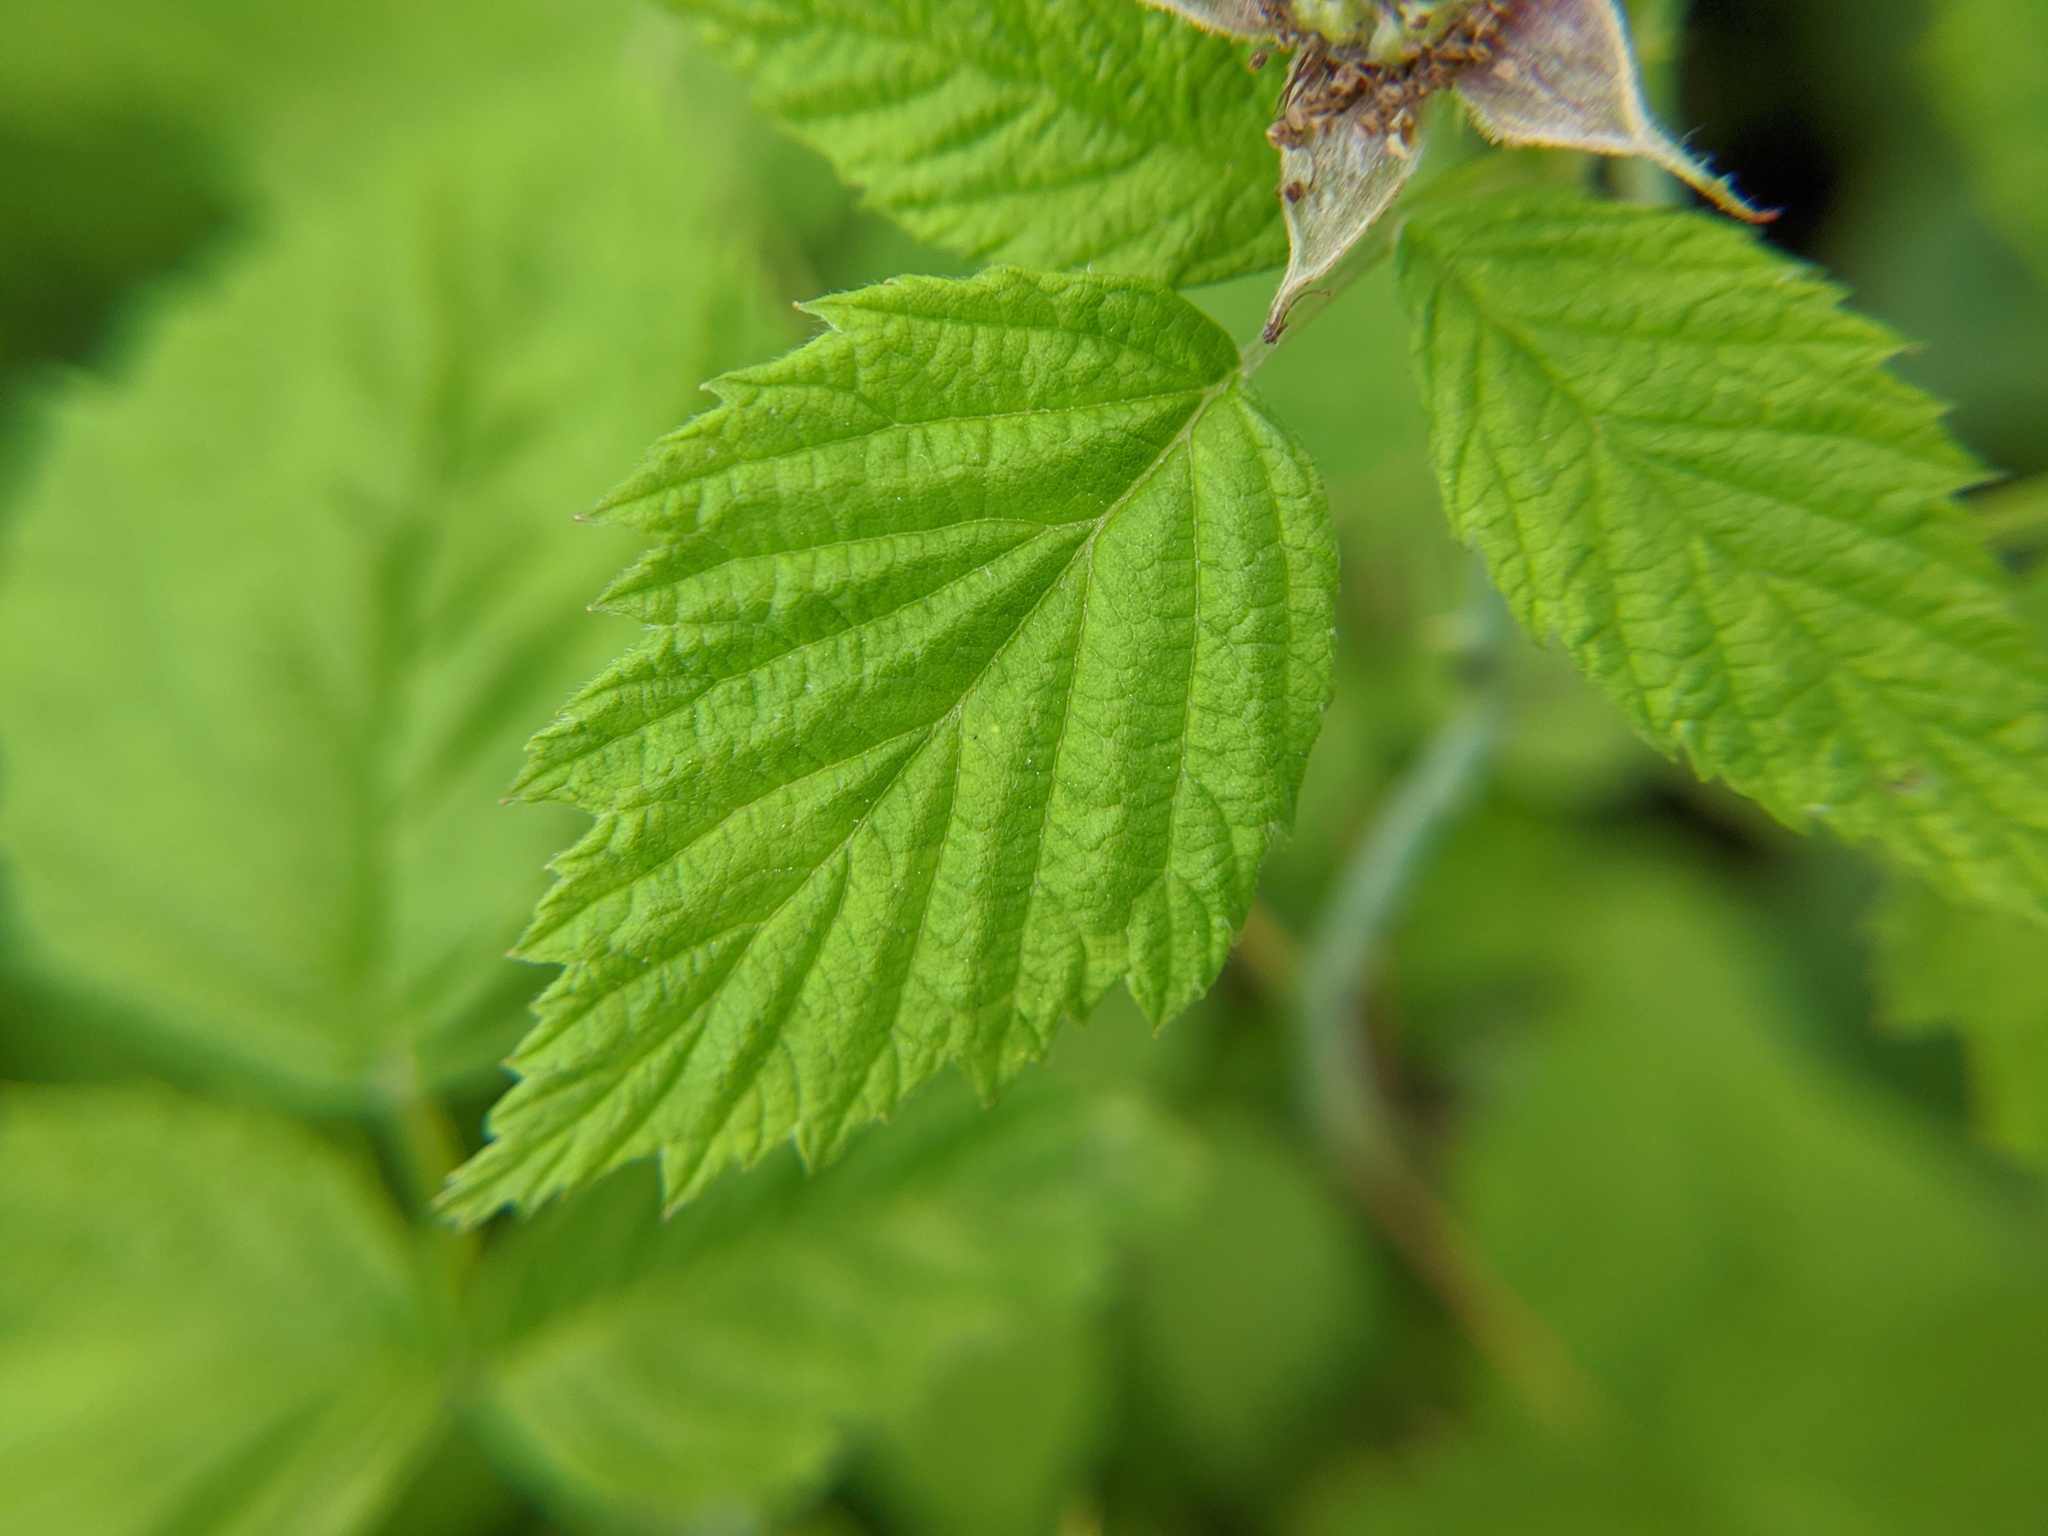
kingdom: Plantae
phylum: Tracheophyta
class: Magnoliopsida
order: Rosales
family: Rosaceae
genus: Rubus
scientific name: Rubus occidentalis
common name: Black raspberry
